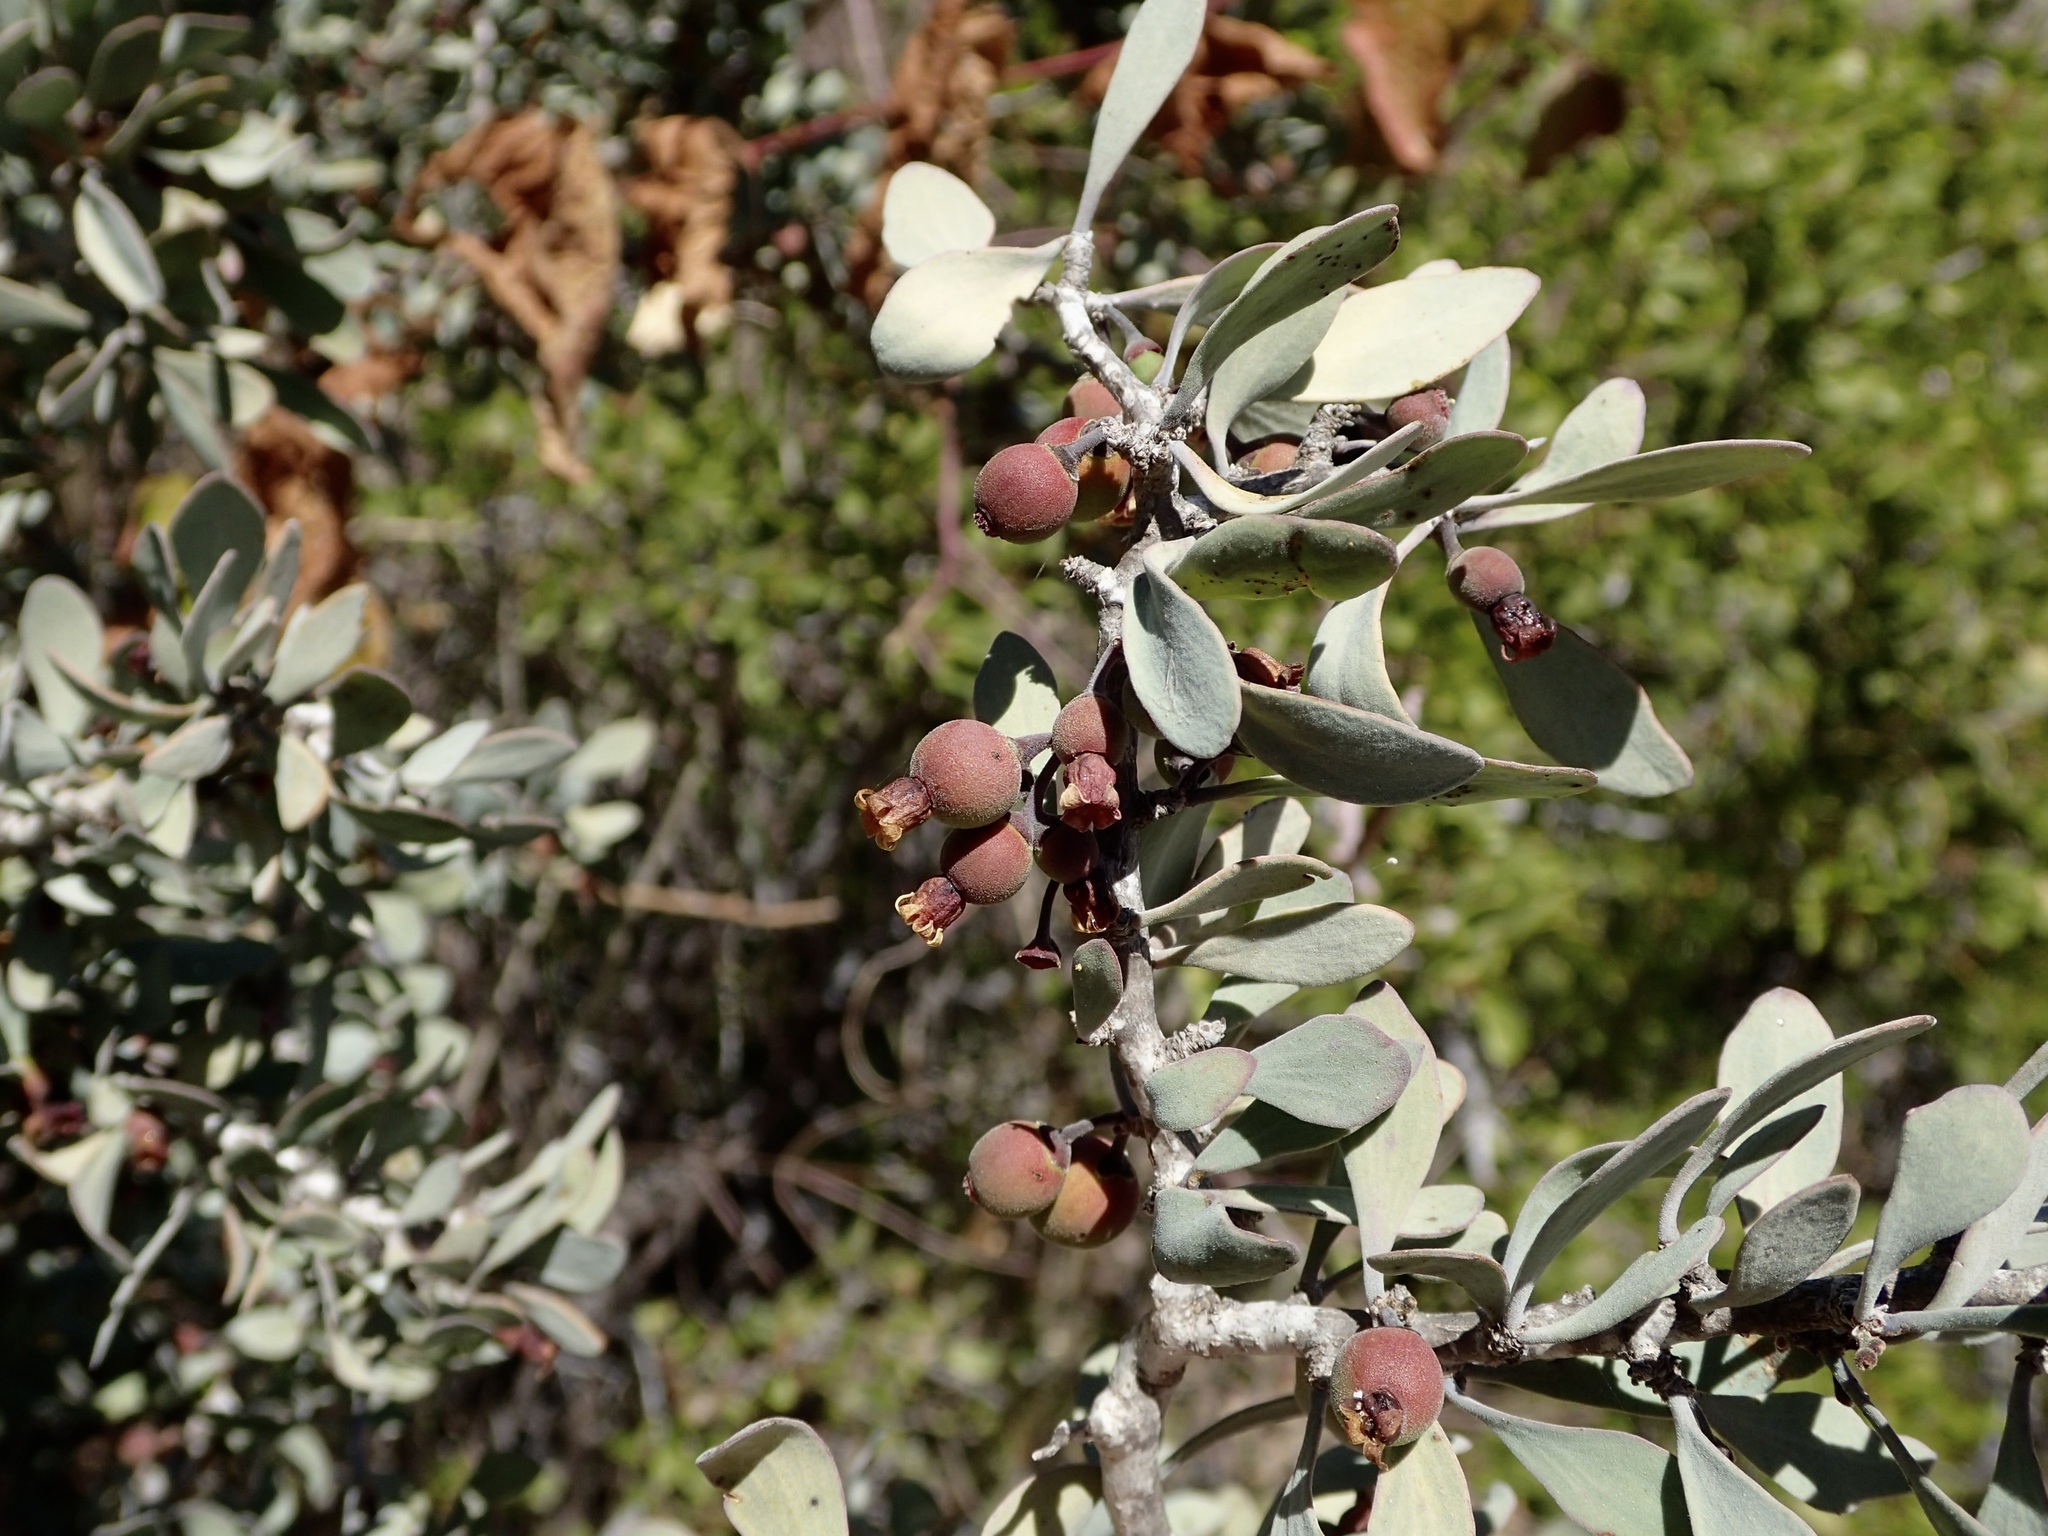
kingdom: Plantae
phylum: Tracheophyta
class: Magnoliopsida
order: Santalales
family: Schoepfiaceae
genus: Schoepfia
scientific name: Schoepfia californica
